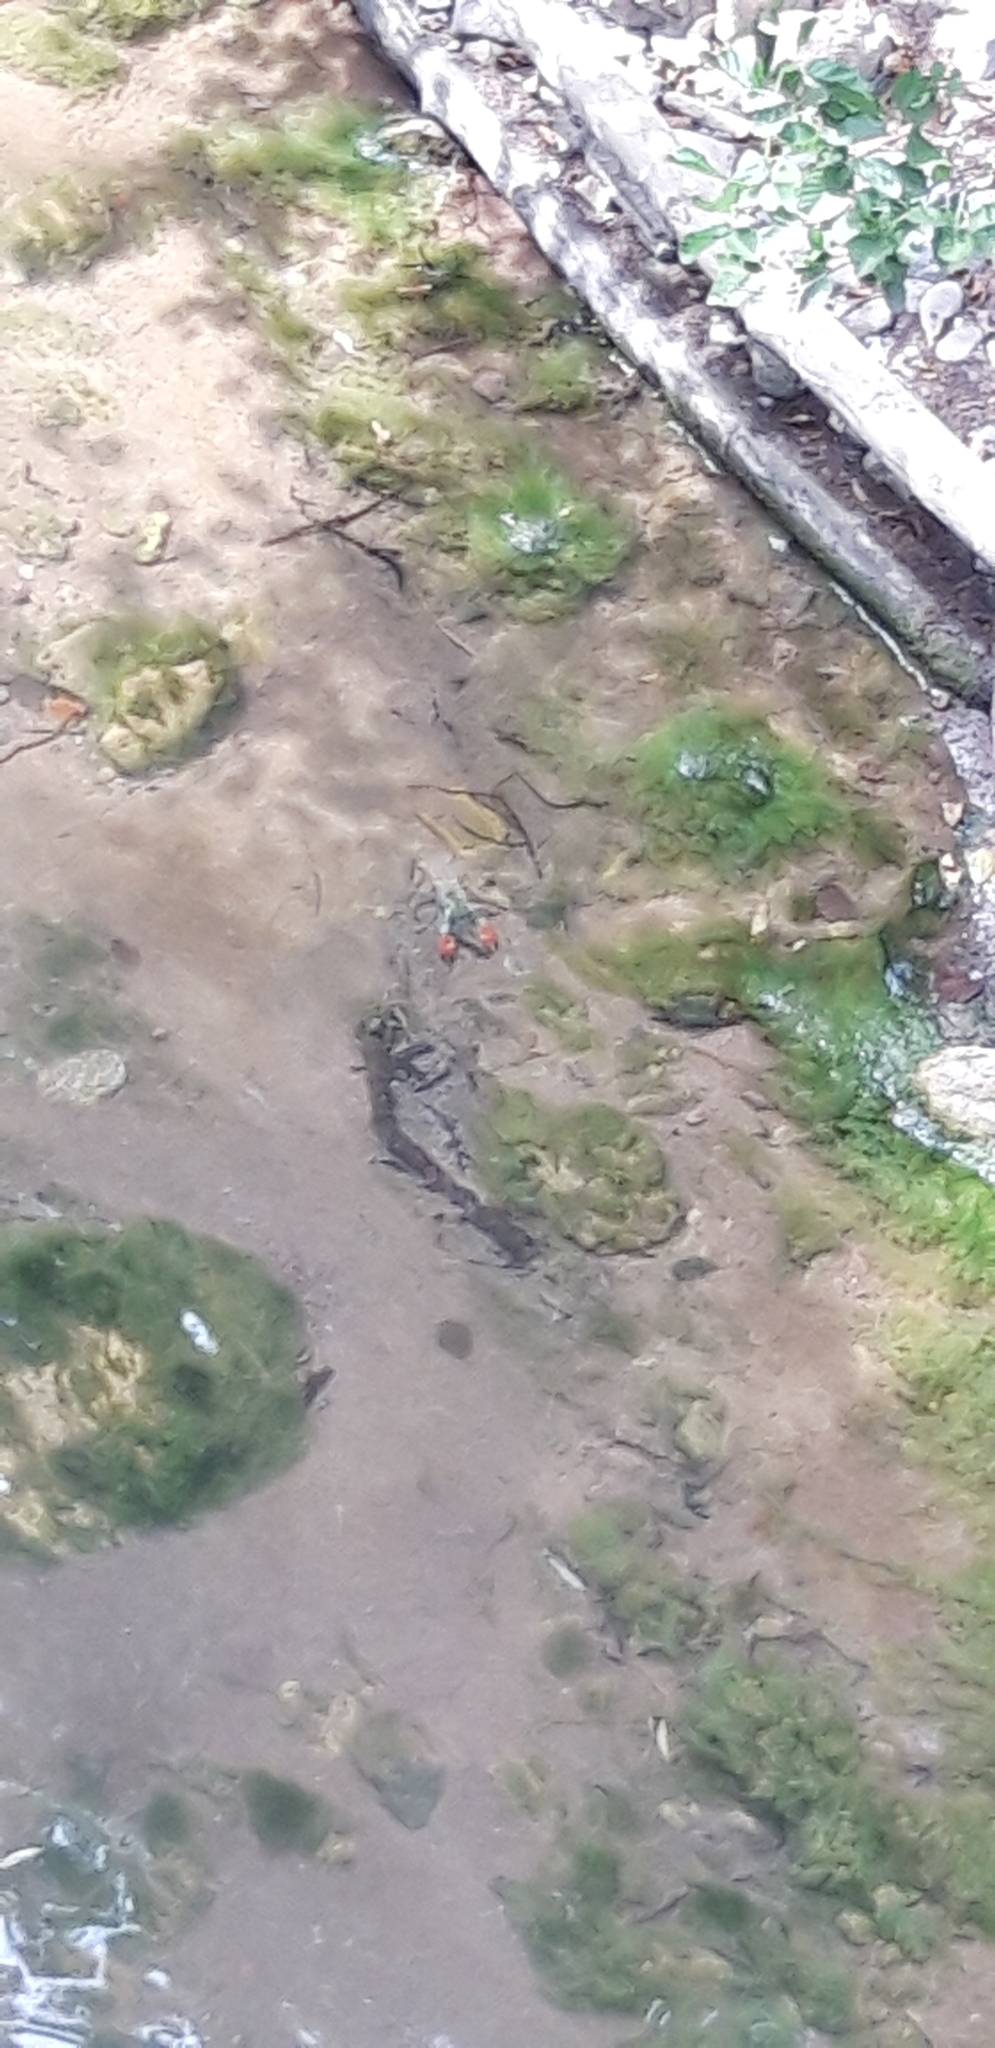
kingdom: Animalia
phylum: Arthropoda
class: Malacostraca
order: Decapoda
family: Astacidae
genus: Pacifastacus
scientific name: Pacifastacus leniusculus
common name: Signal crayfish
